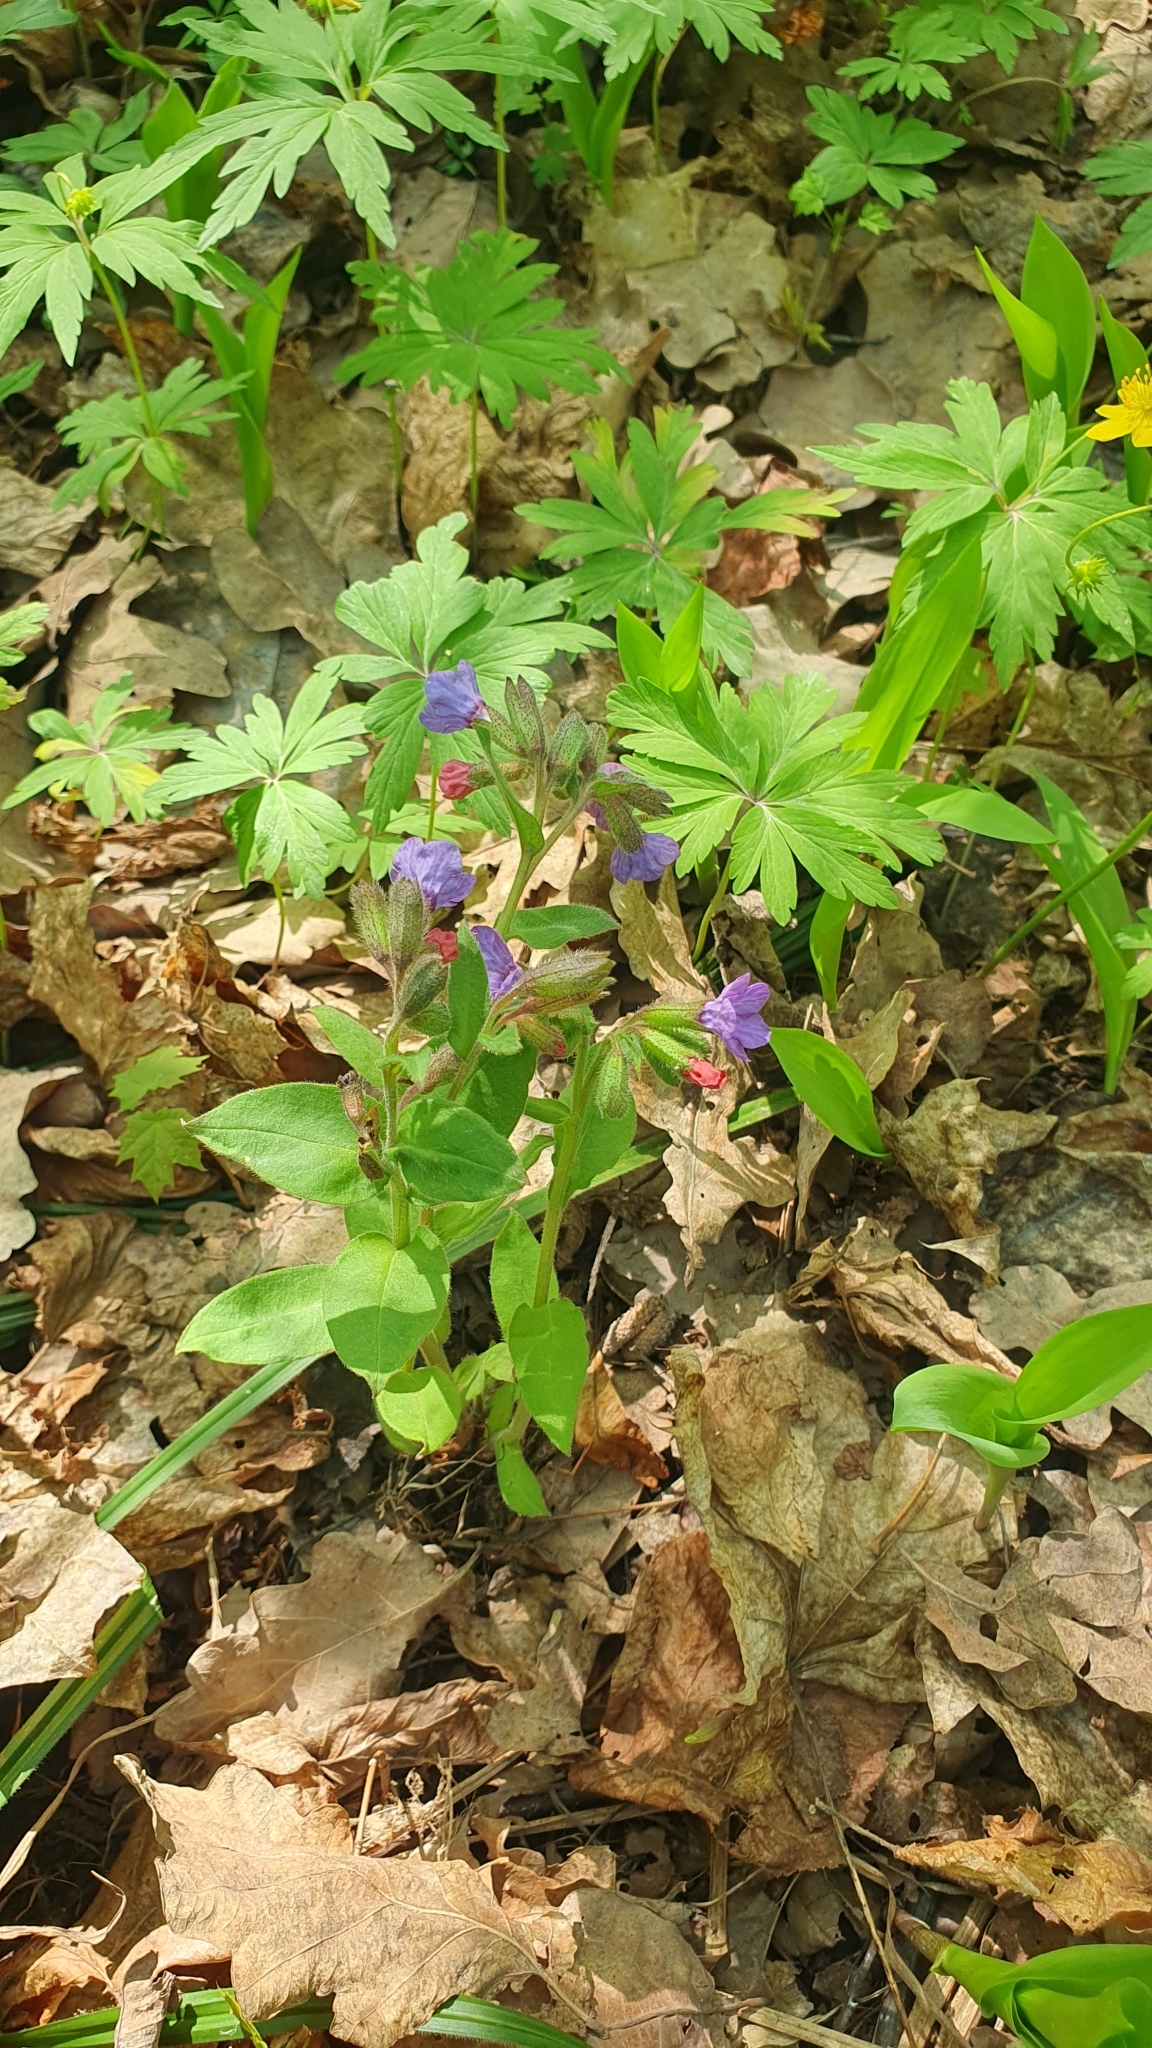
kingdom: Plantae
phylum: Tracheophyta
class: Magnoliopsida
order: Boraginales
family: Boraginaceae
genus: Pulmonaria
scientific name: Pulmonaria obscura
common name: Suffolk lungwort
